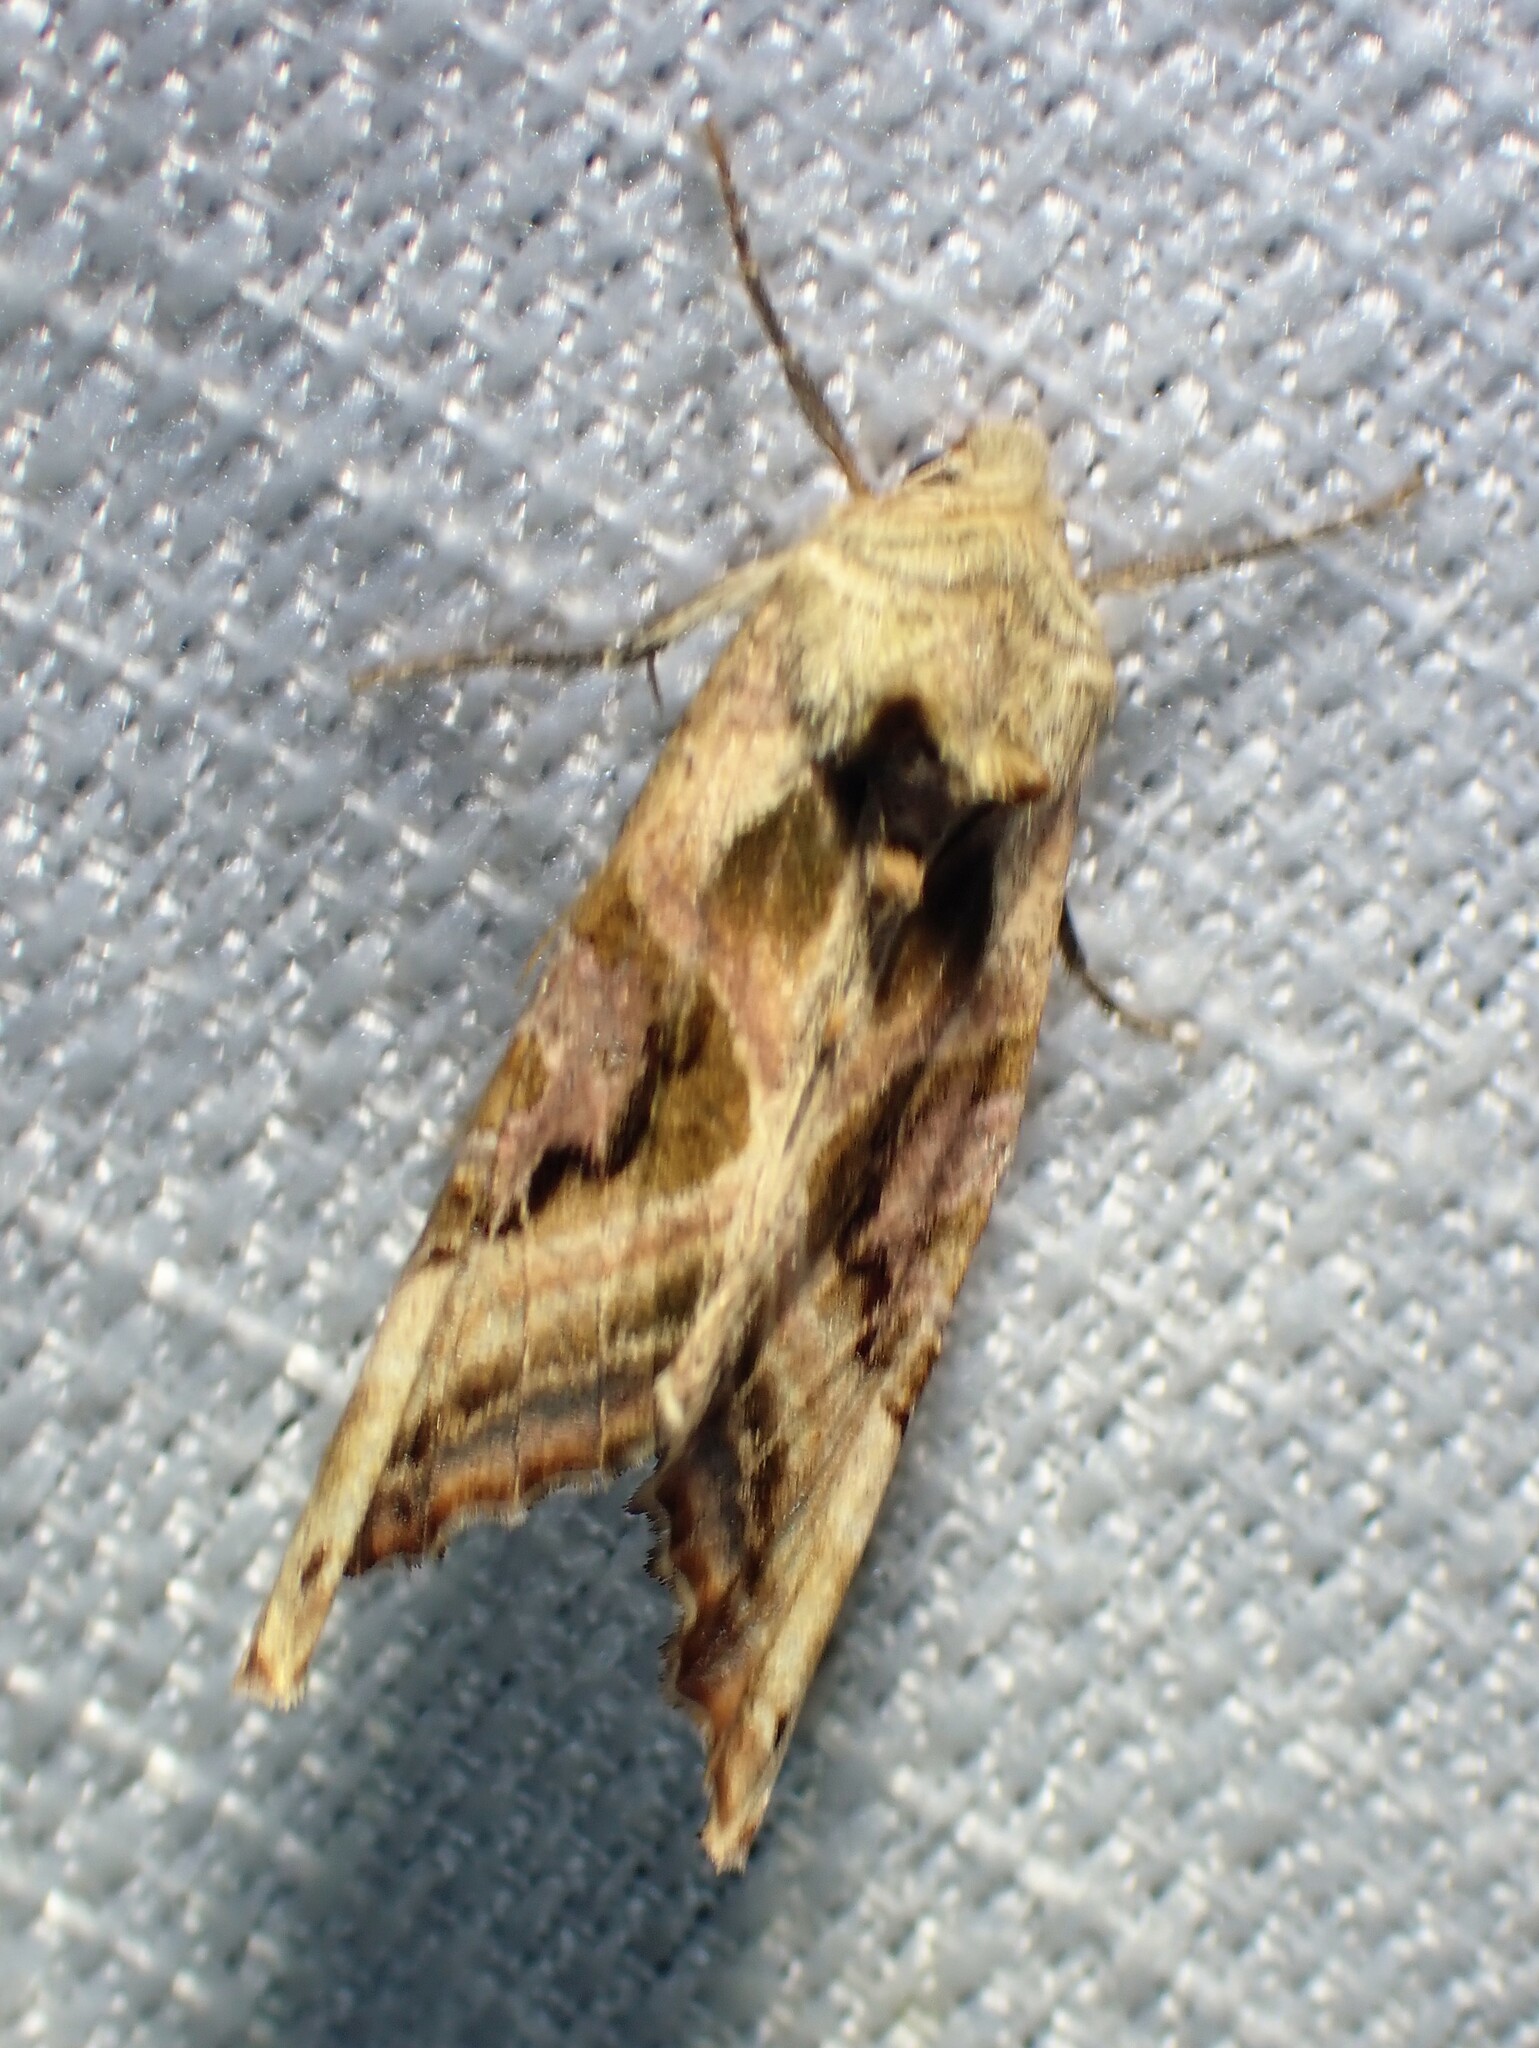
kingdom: Animalia
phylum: Arthropoda
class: Insecta
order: Lepidoptera
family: Noctuidae
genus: Phlogophora
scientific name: Phlogophora iris
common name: Olive angle shades
